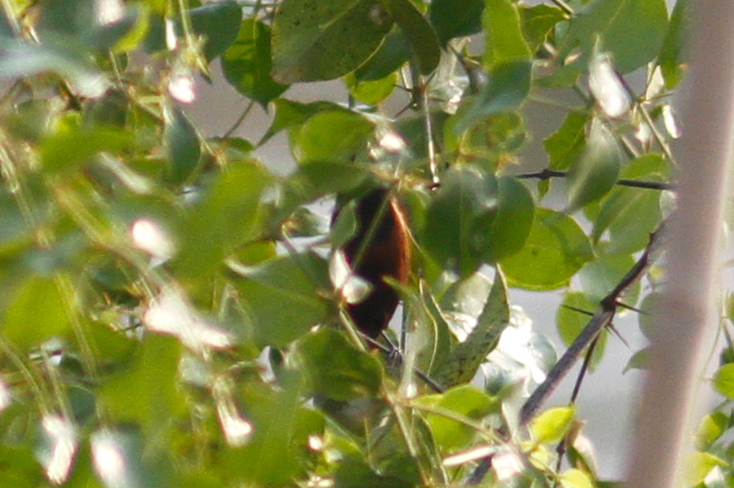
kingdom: Animalia
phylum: Chordata
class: Aves
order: Passeriformes
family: Estrildidae
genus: Lonchura
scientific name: Lonchura atricapilla
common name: Chestnut munia
